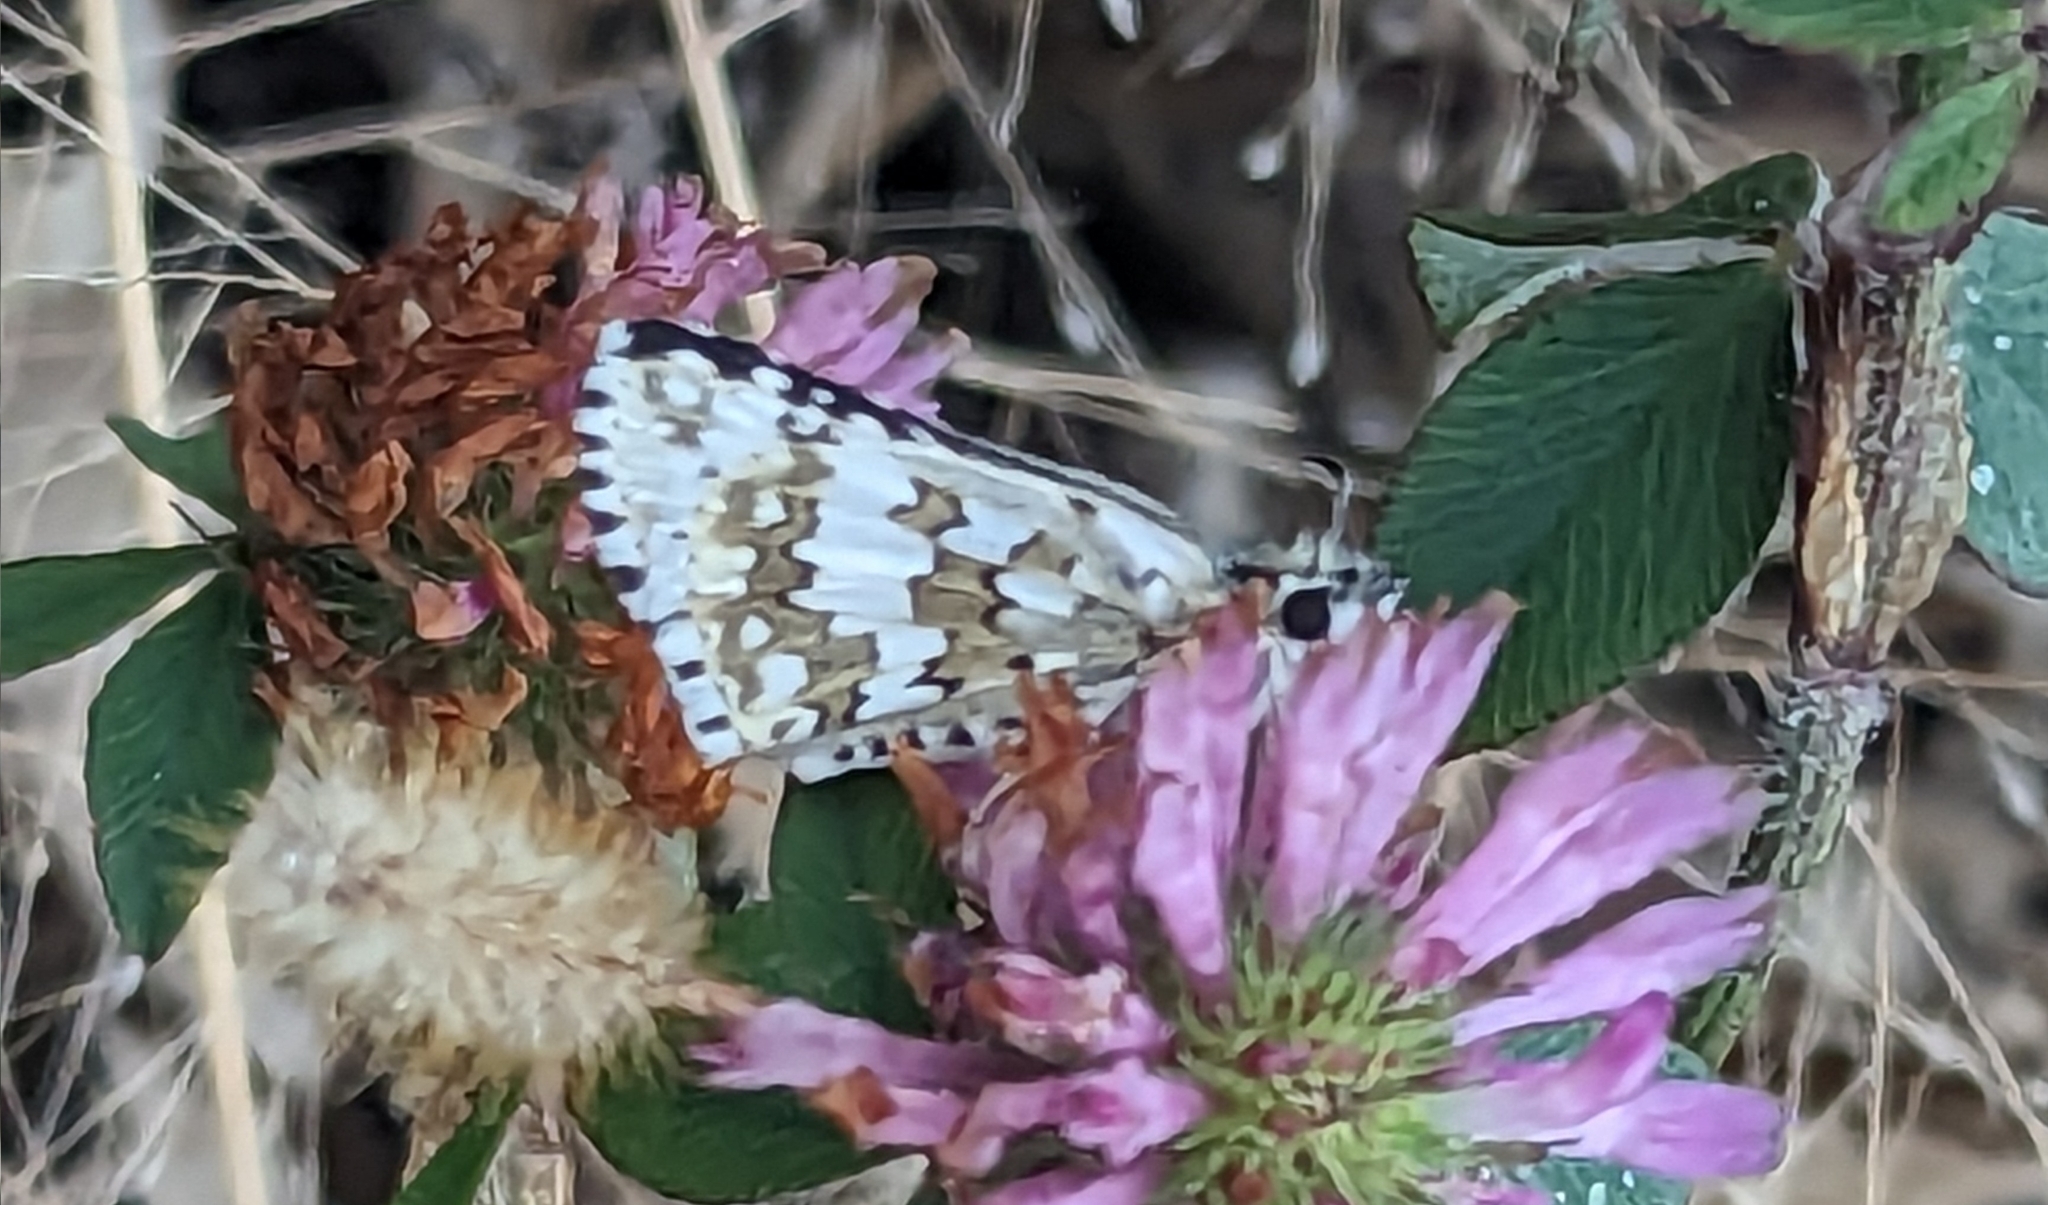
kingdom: Animalia
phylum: Arthropoda
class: Insecta
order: Lepidoptera
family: Hesperiidae
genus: Burnsius
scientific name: Burnsius communis
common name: Common checkered-skipper
